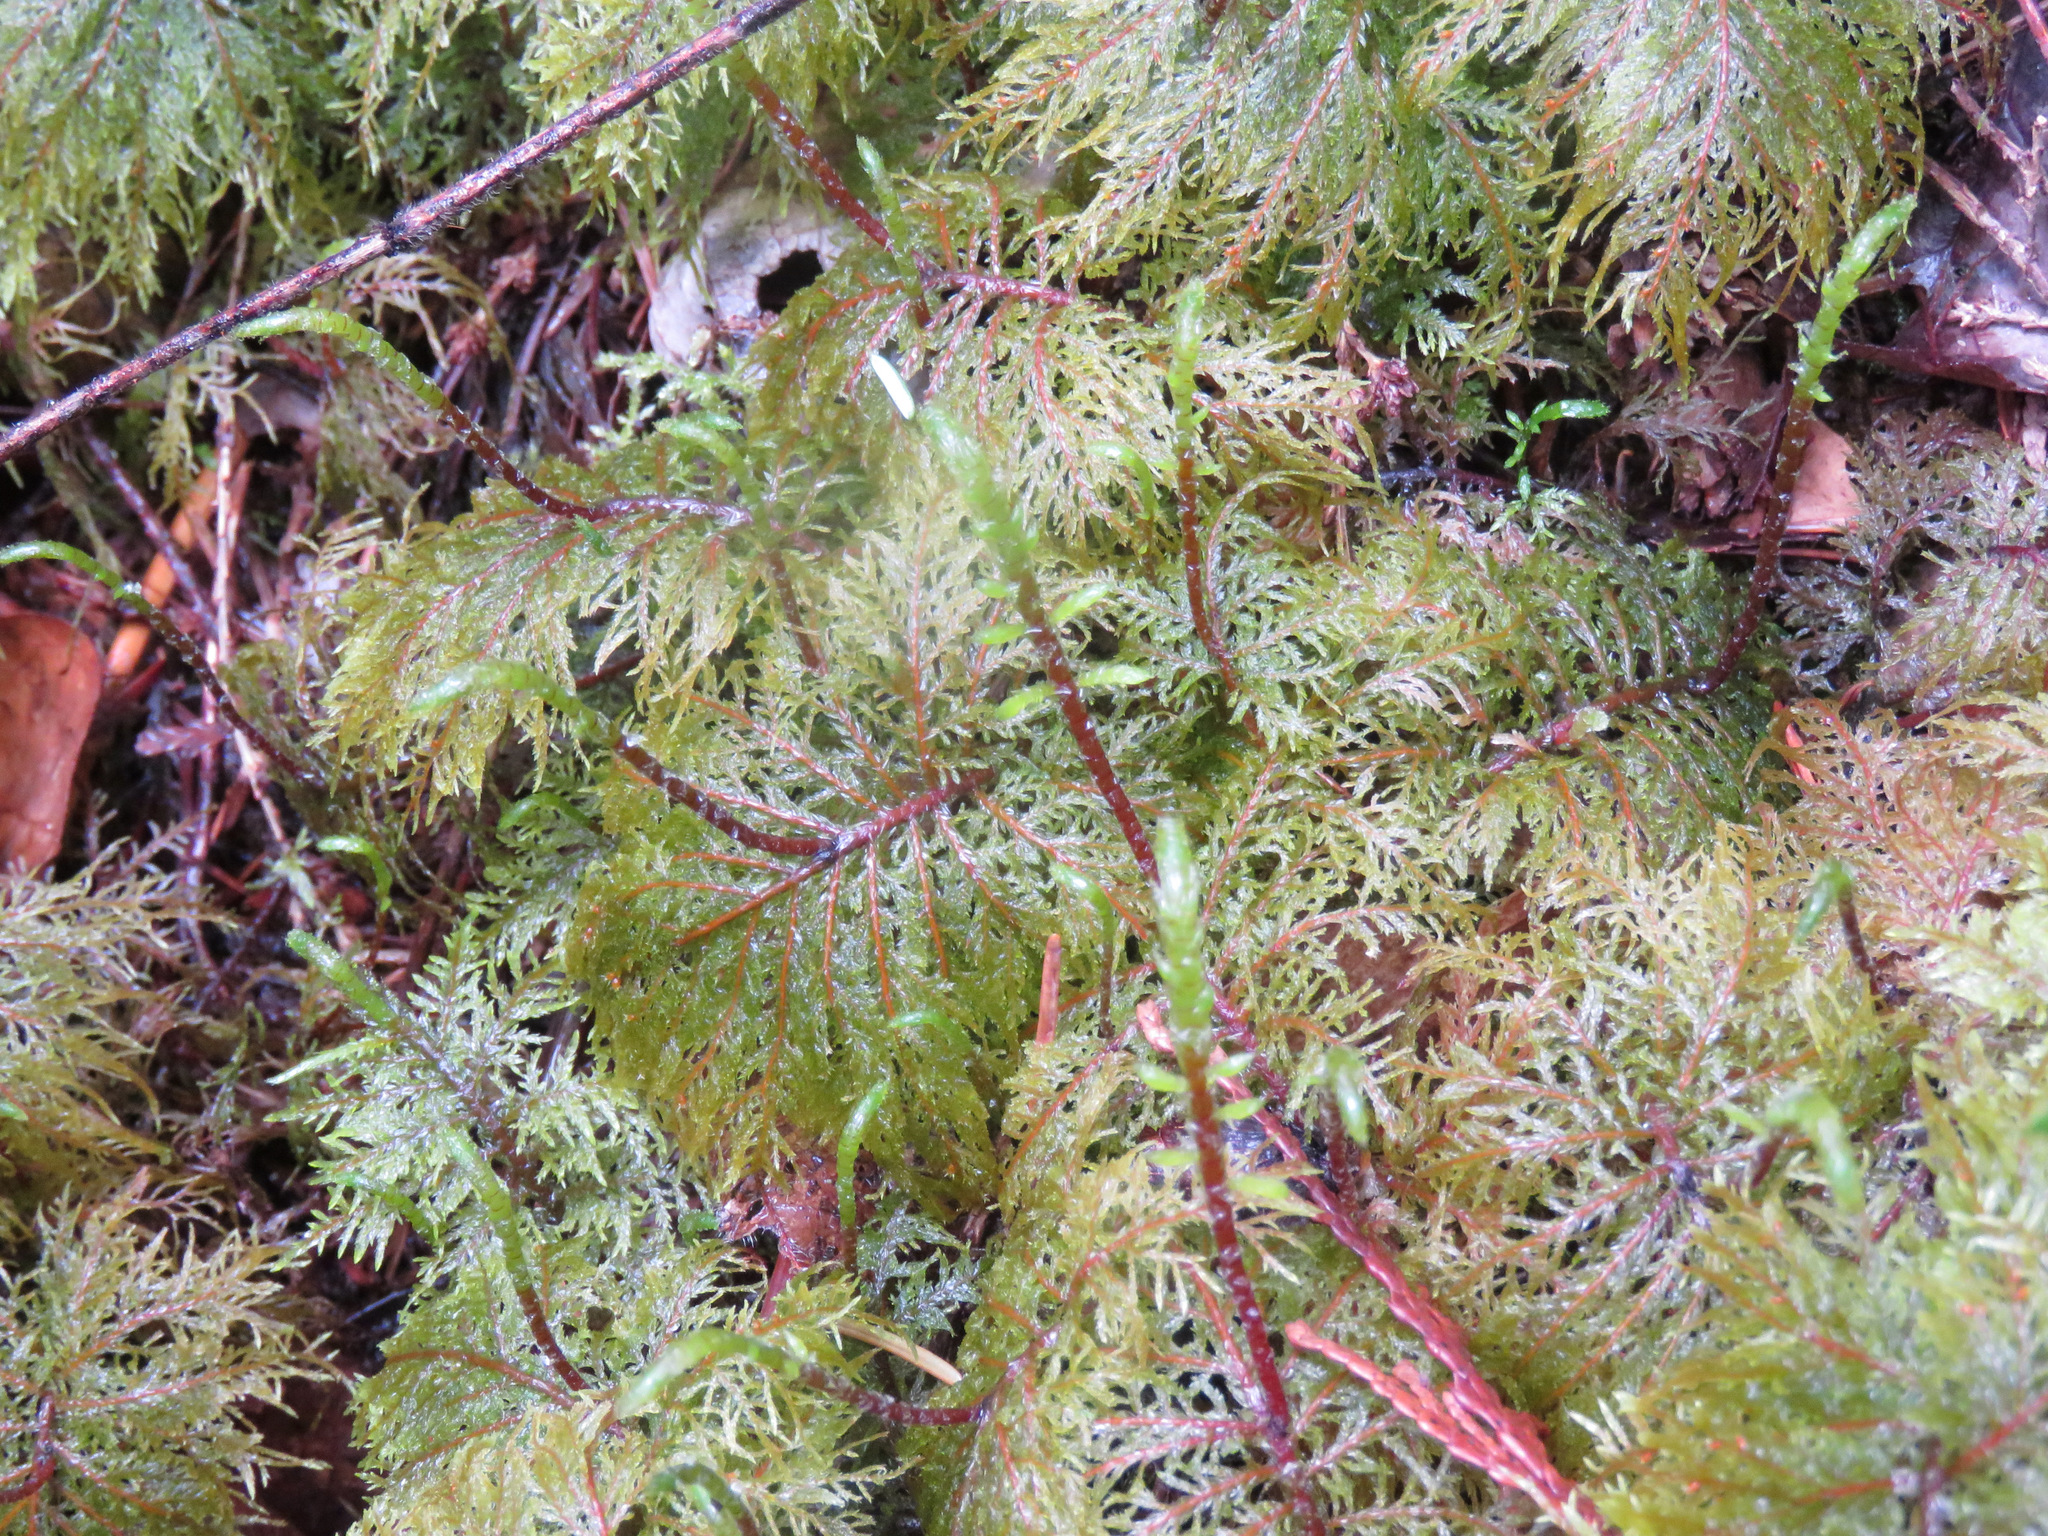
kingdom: Plantae
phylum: Bryophyta
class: Bryopsida
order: Hypnales
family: Hylocomiaceae
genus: Hylocomium
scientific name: Hylocomium splendens
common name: Stairstep moss
